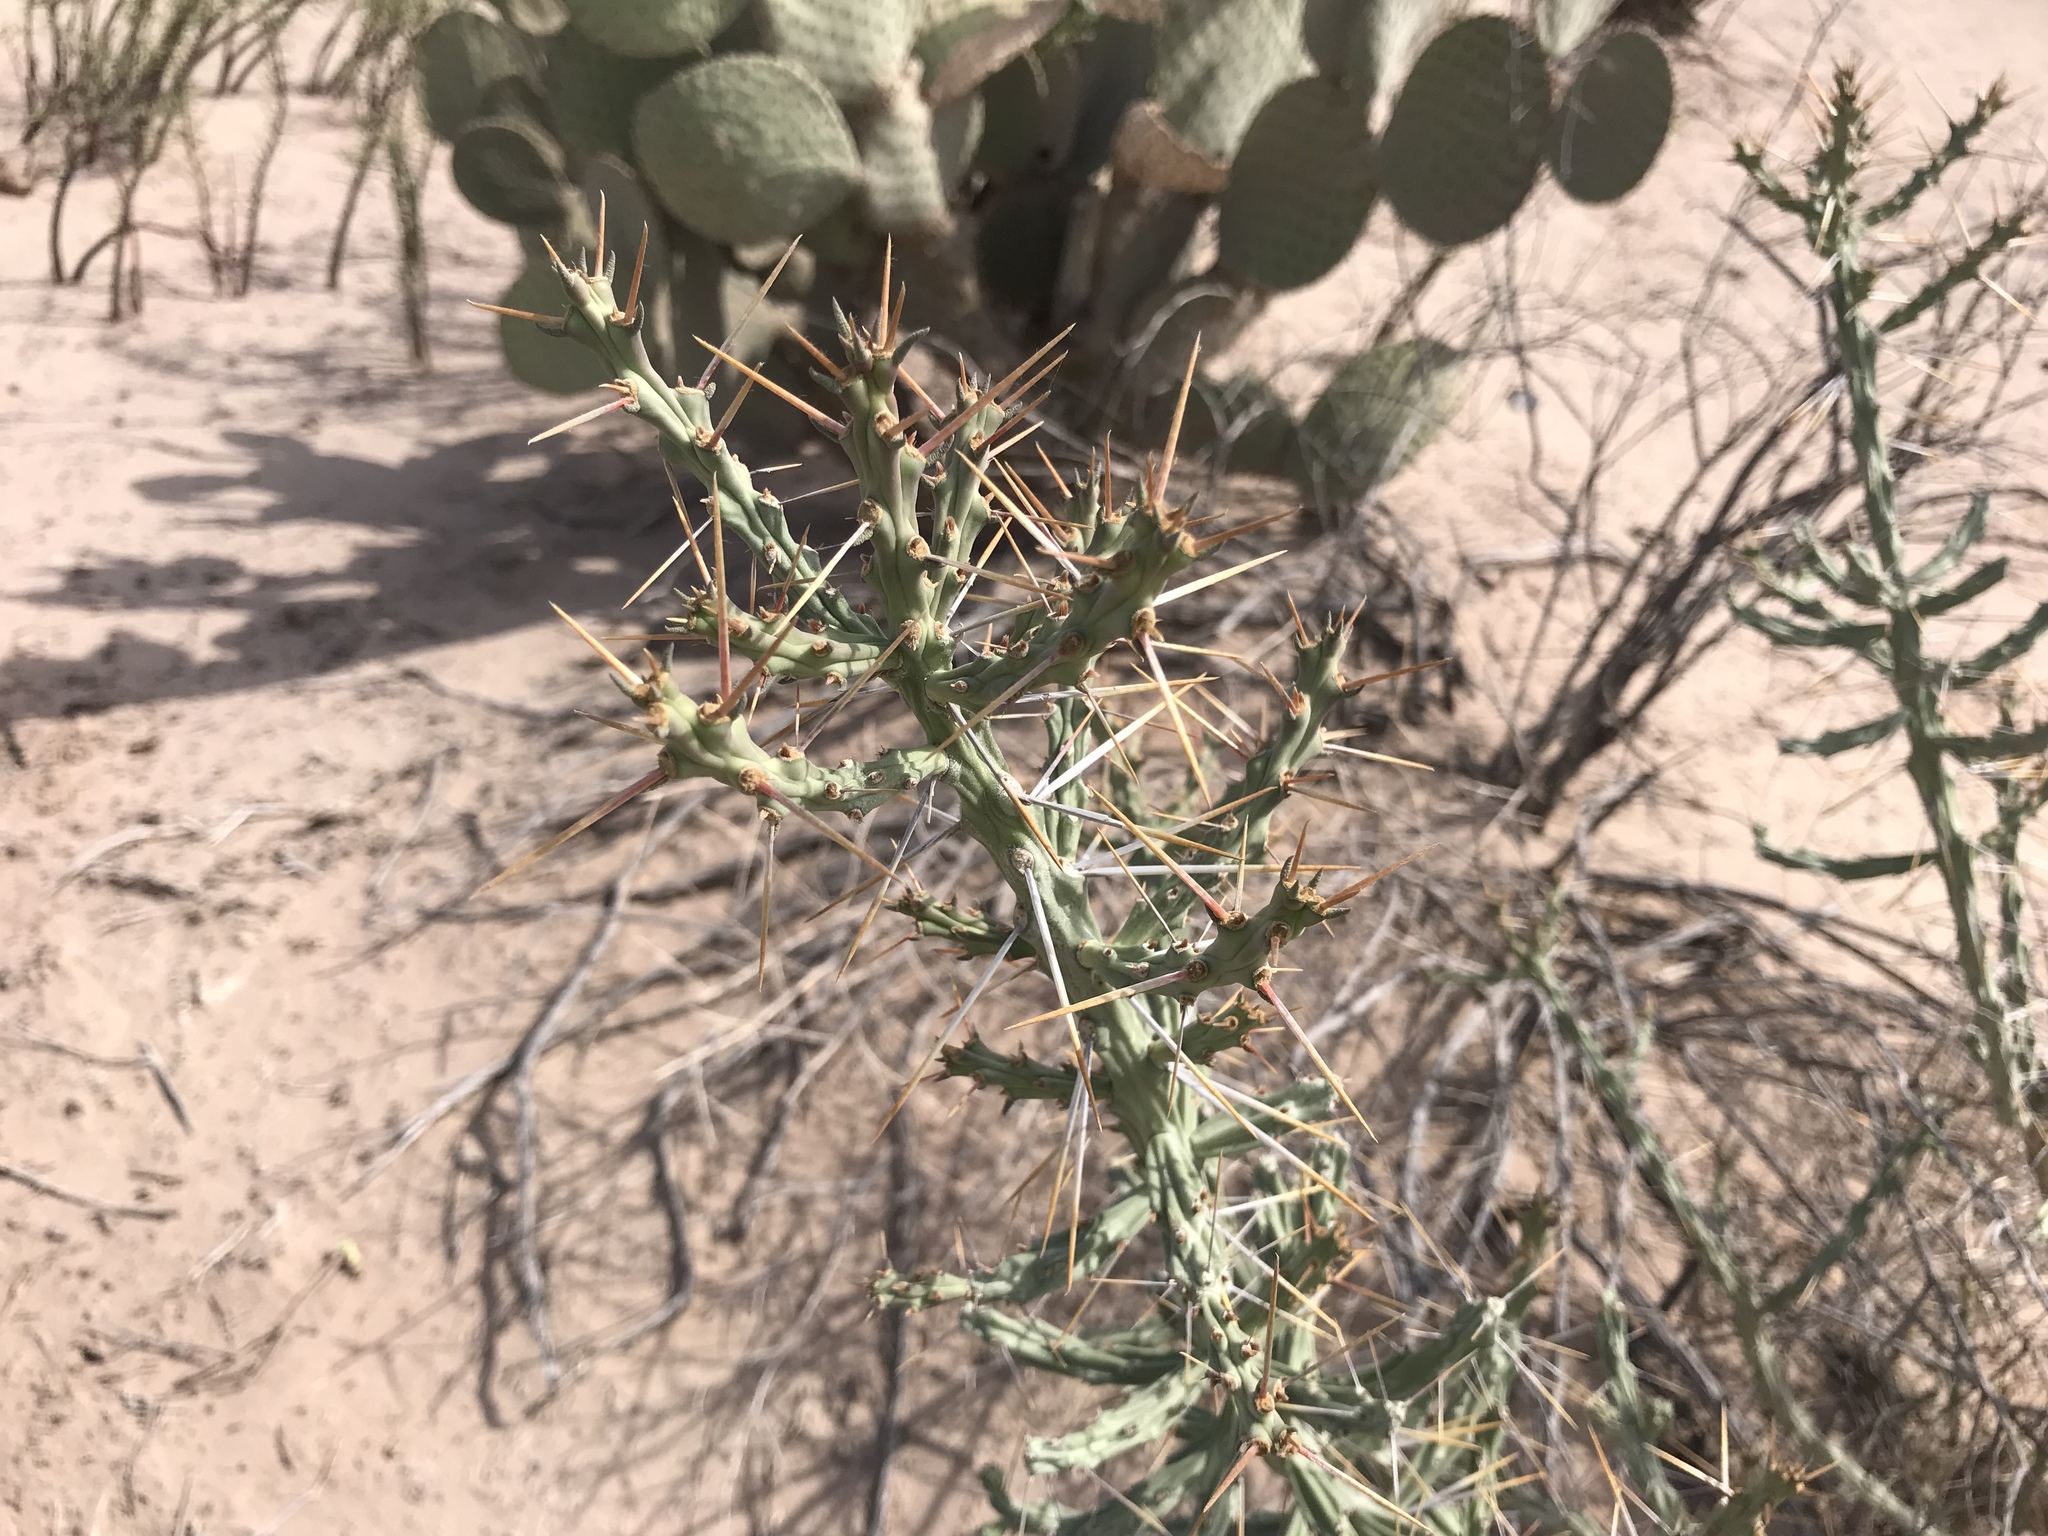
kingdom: Plantae
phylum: Tracheophyta
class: Magnoliopsida
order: Caryophyllales
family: Cactaceae
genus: Cylindropuntia
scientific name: Cylindropuntia kleiniae
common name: Klein's cholla
